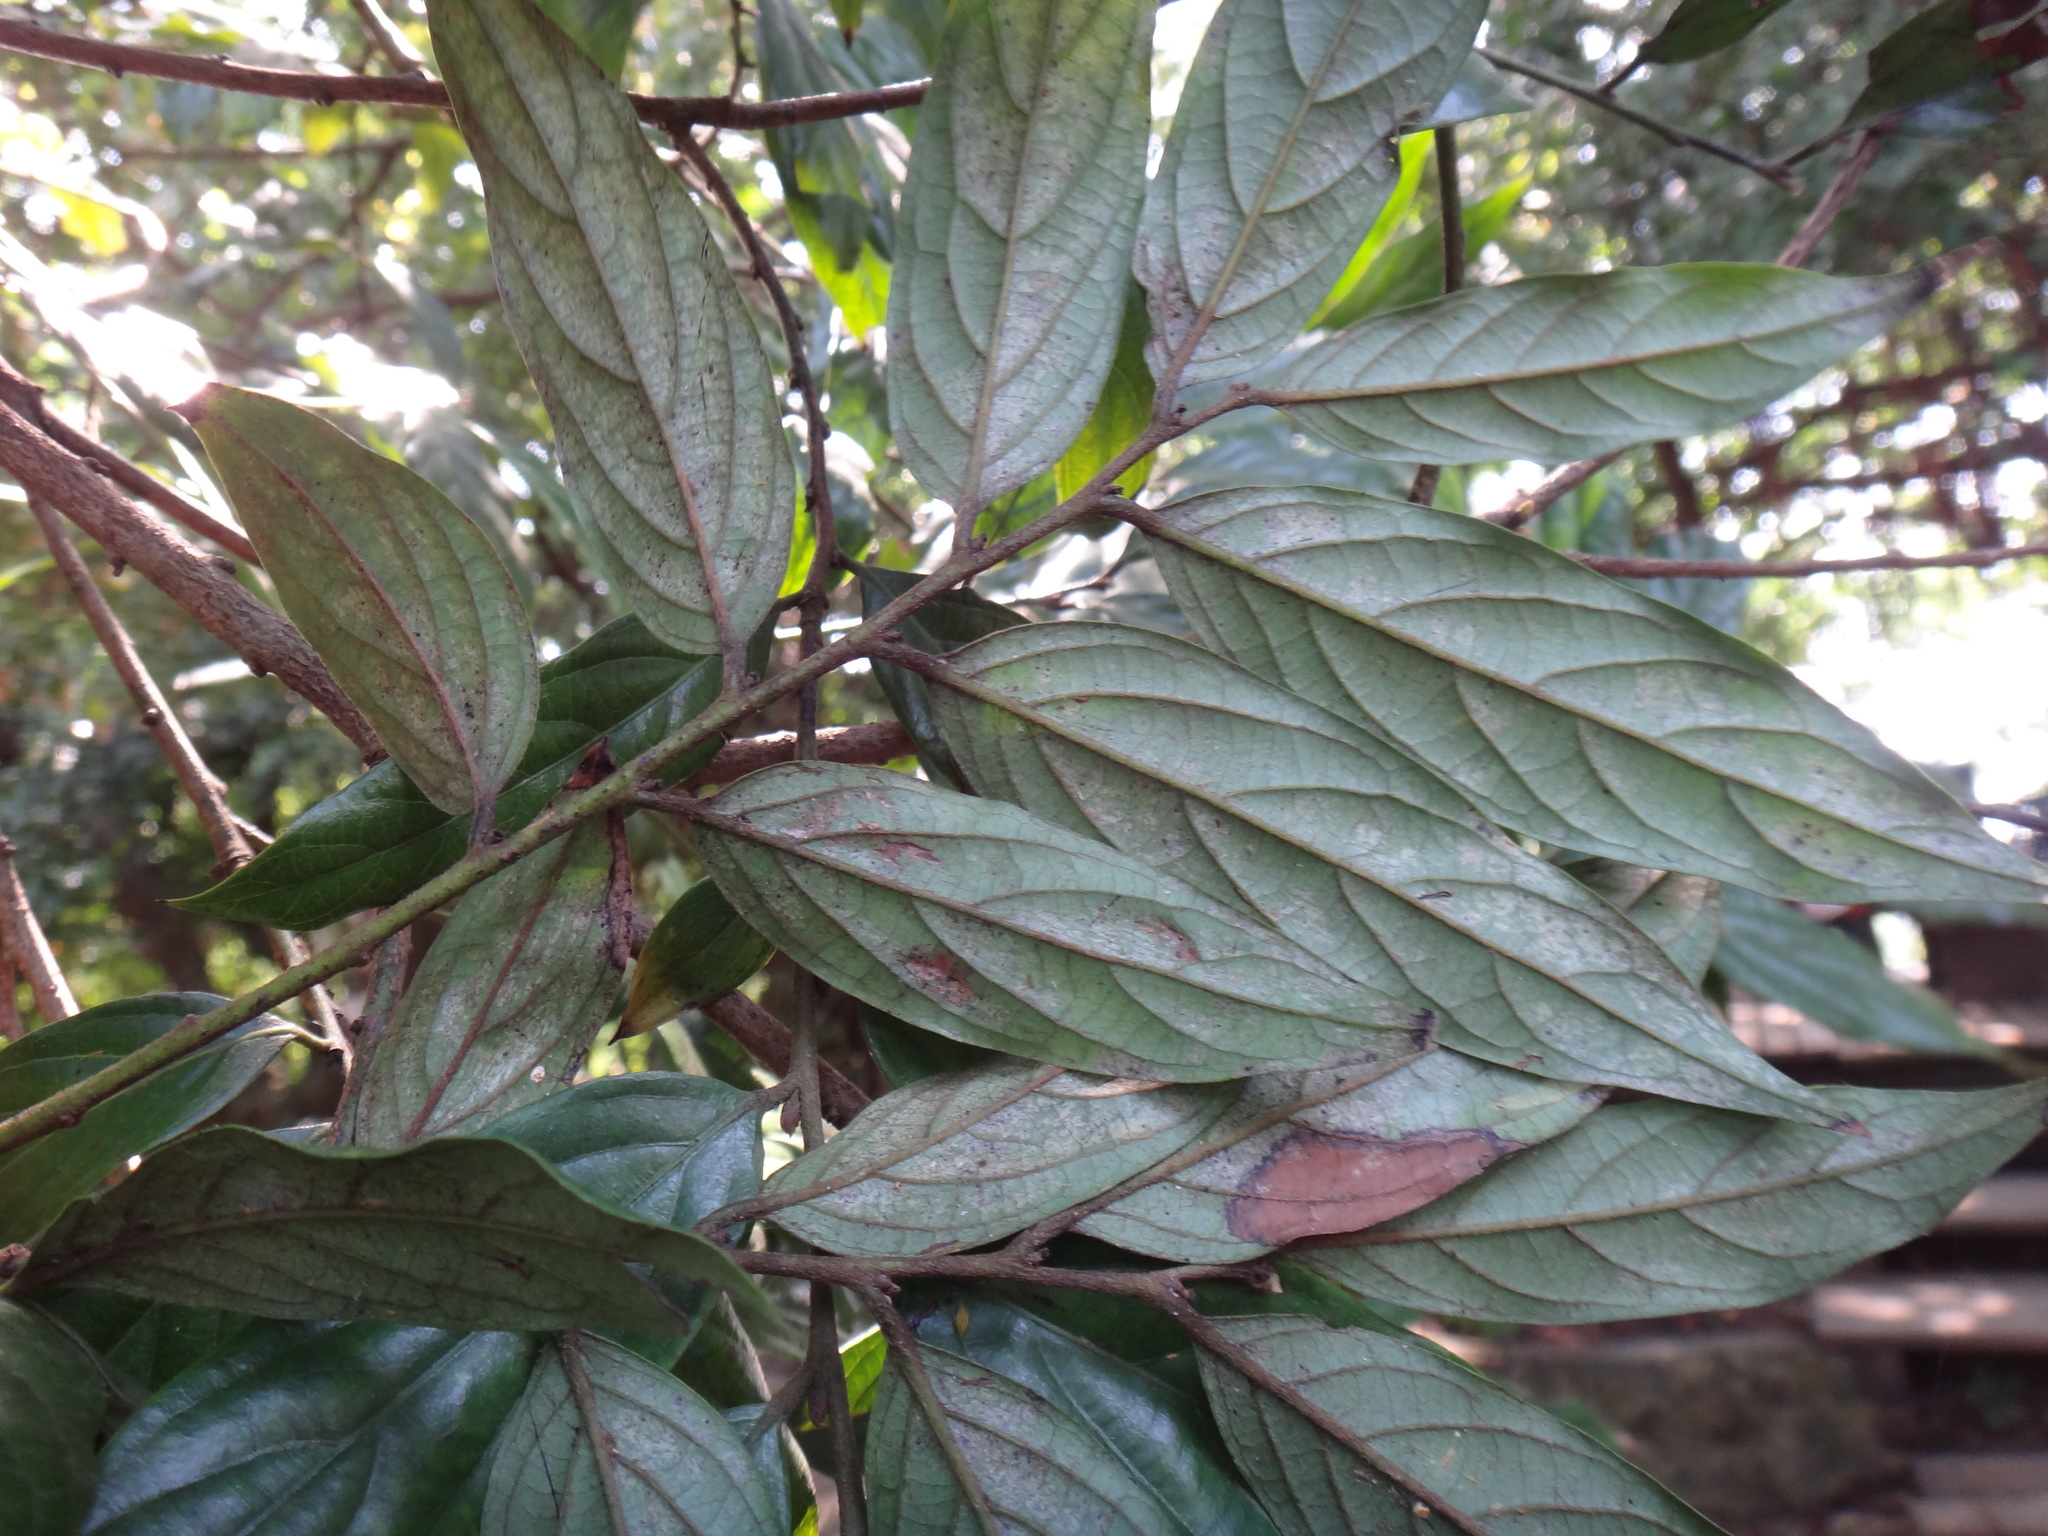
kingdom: Plantae
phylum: Tracheophyta
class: Magnoliopsida
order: Ericales
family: Ebenaceae
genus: Diospyros
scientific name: Diospyros eriantha
